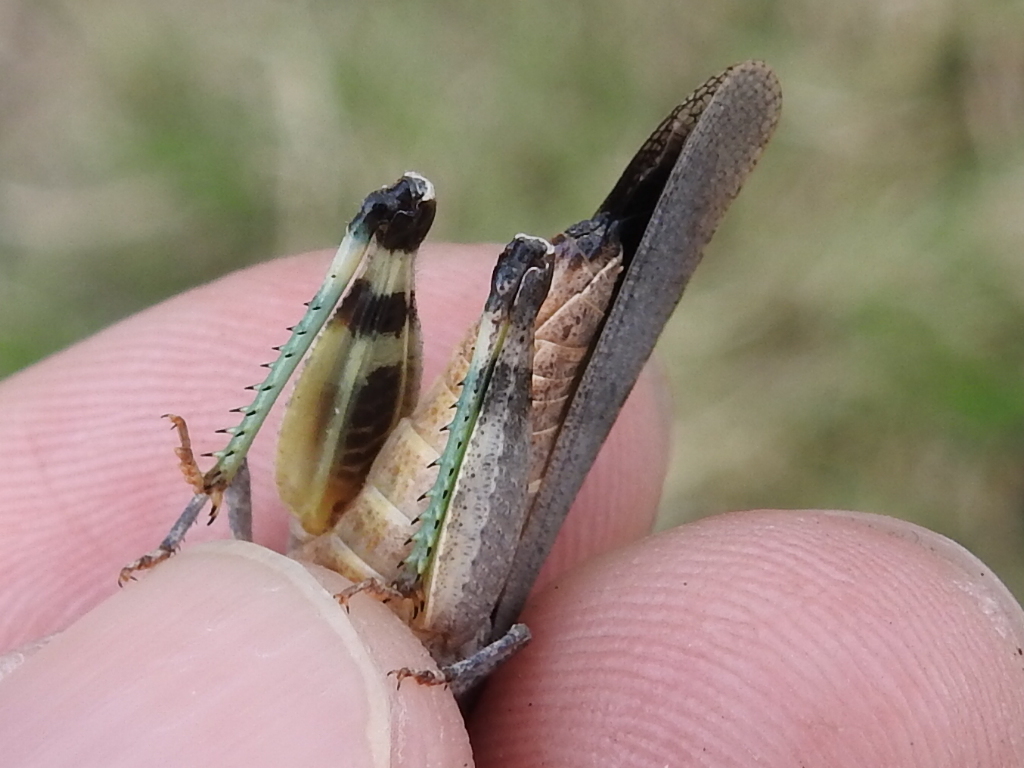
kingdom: Animalia
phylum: Arthropoda
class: Insecta
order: Orthoptera
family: Acrididae
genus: Lactista
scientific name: Lactista azteca
